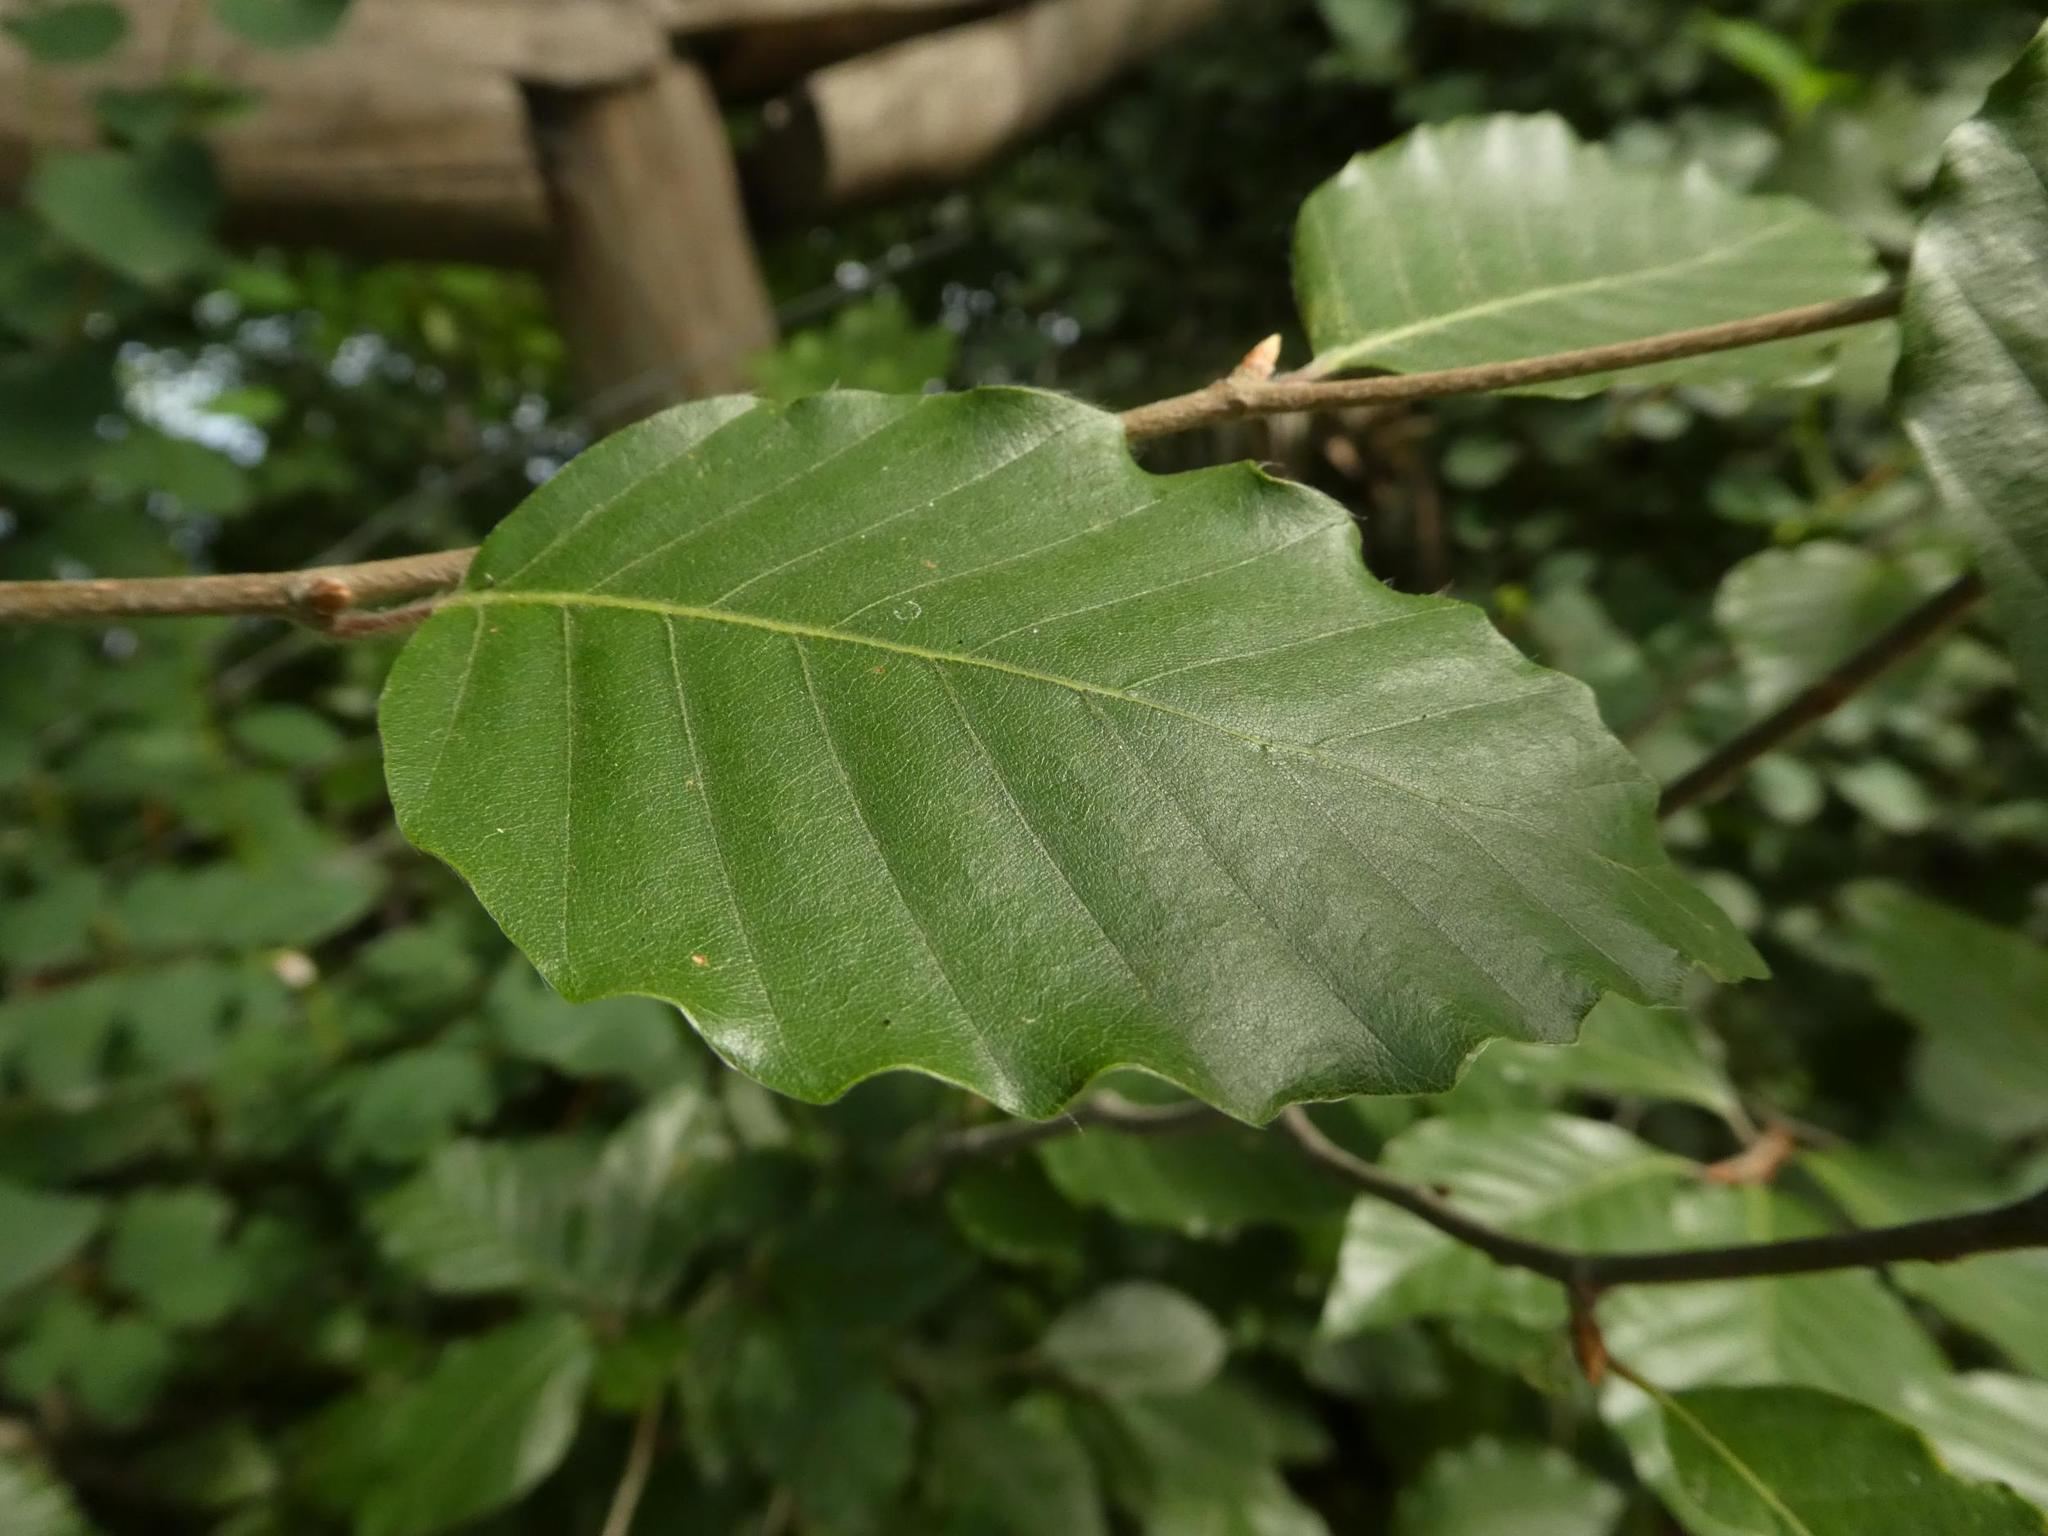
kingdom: Plantae
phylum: Tracheophyta
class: Magnoliopsida
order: Fagales
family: Fagaceae
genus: Fagus
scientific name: Fagus sylvatica
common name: Beech
